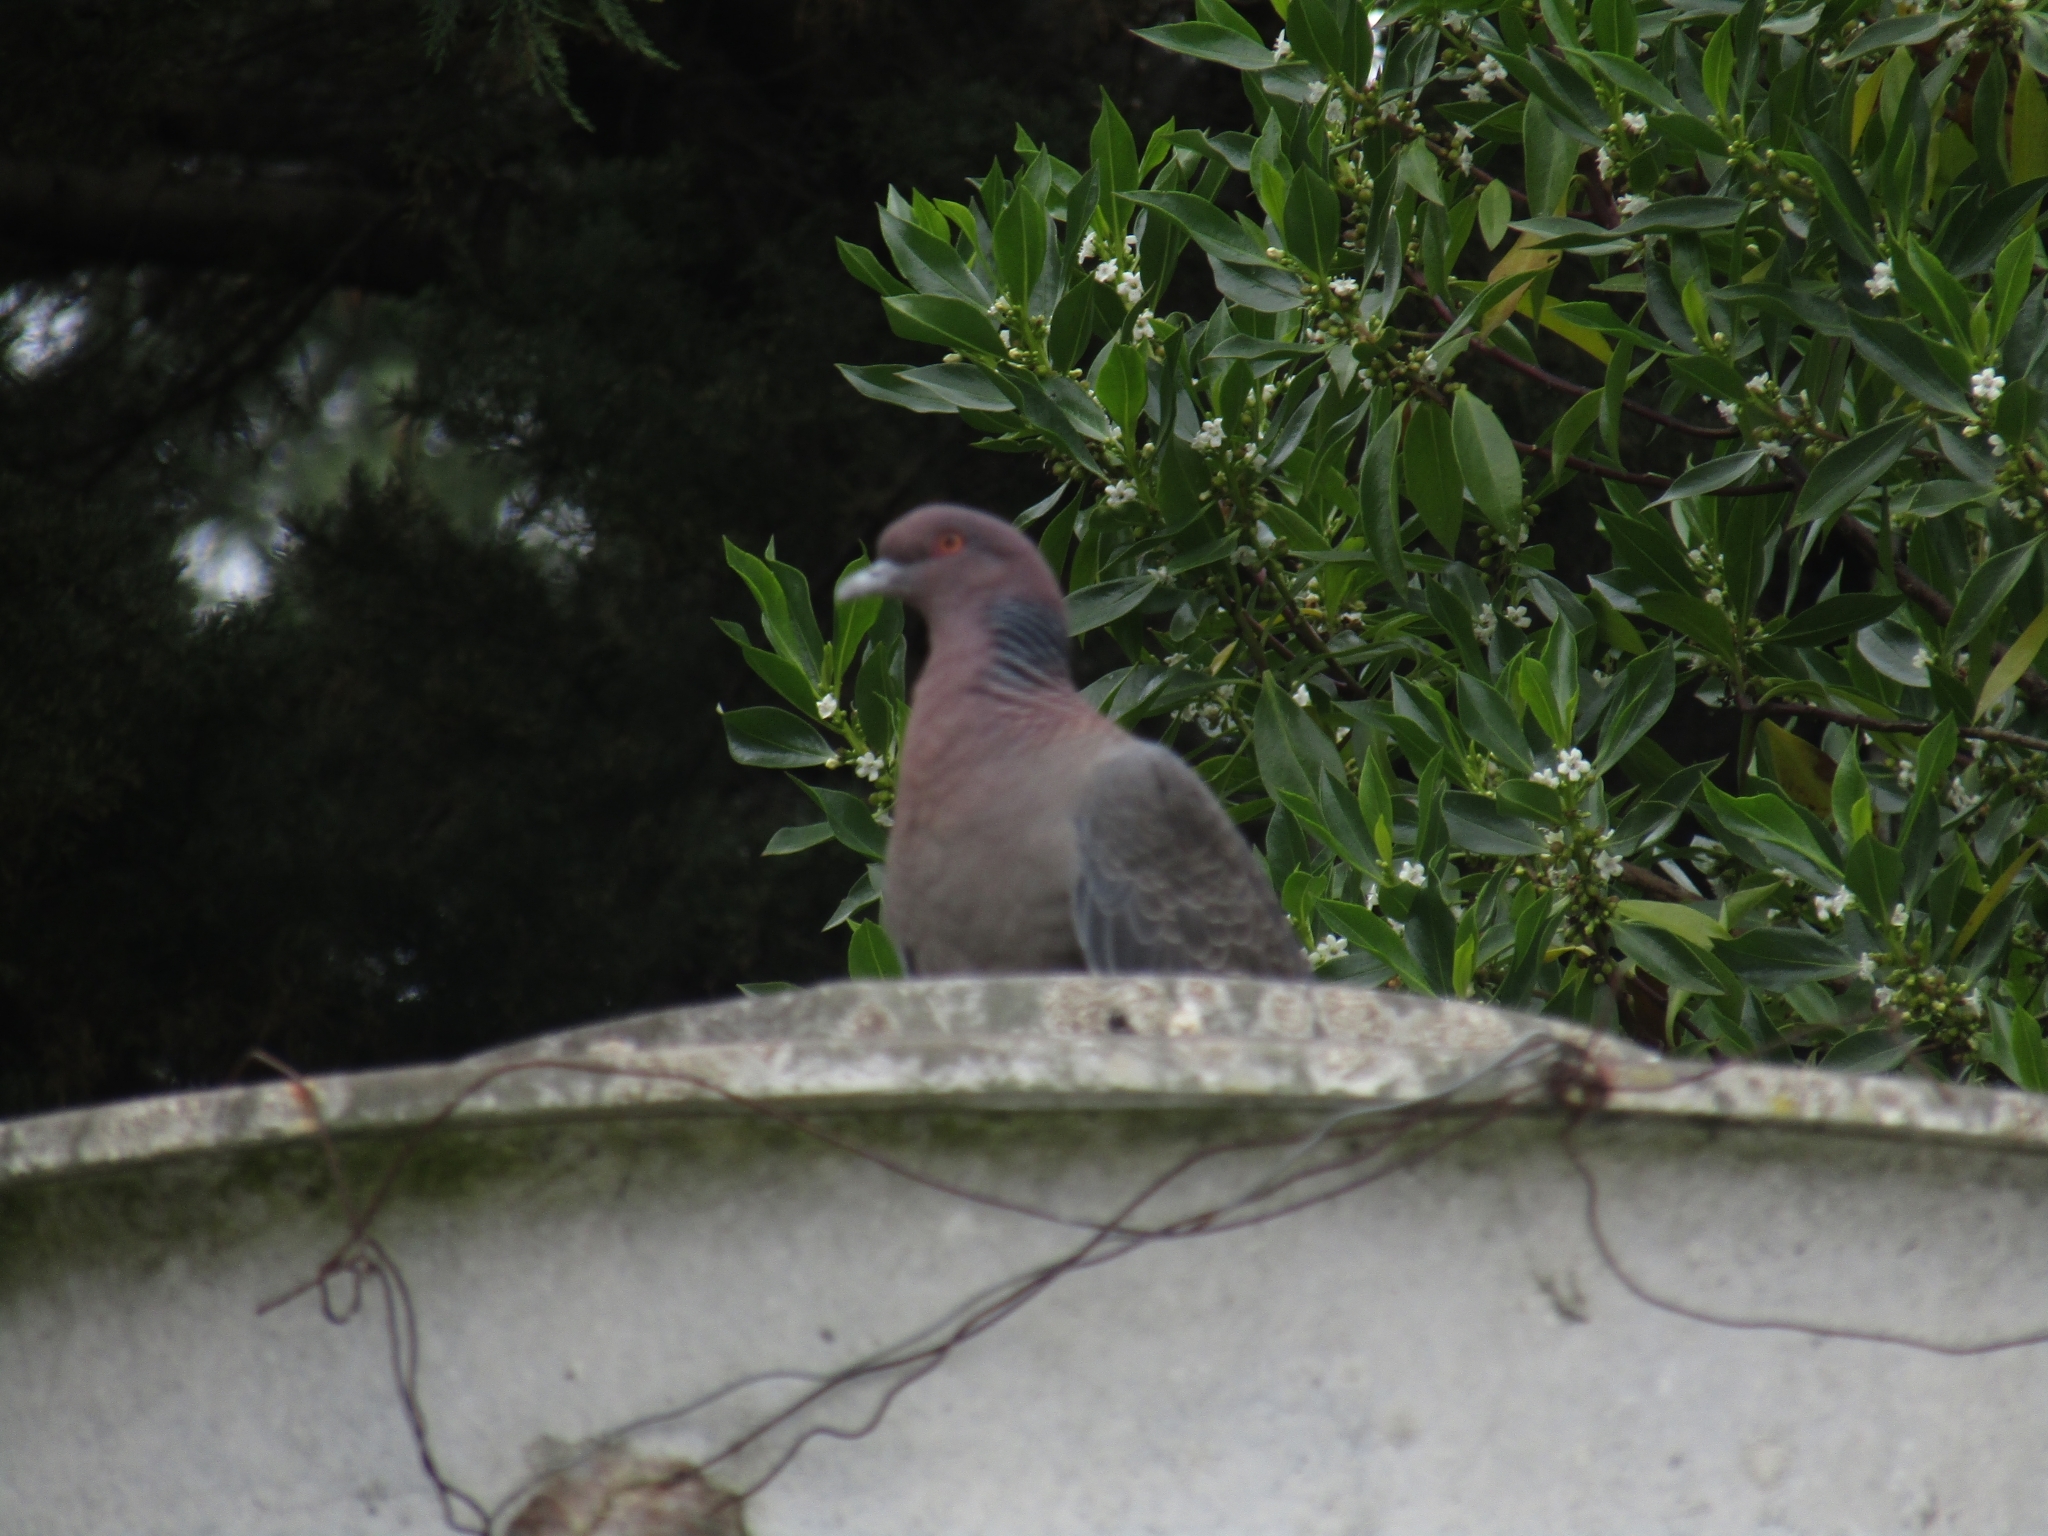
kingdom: Animalia
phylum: Chordata
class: Aves
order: Columbiformes
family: Columbidae
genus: Patagioenas
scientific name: Patagioenas picazuro
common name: Picazuro pigeon
